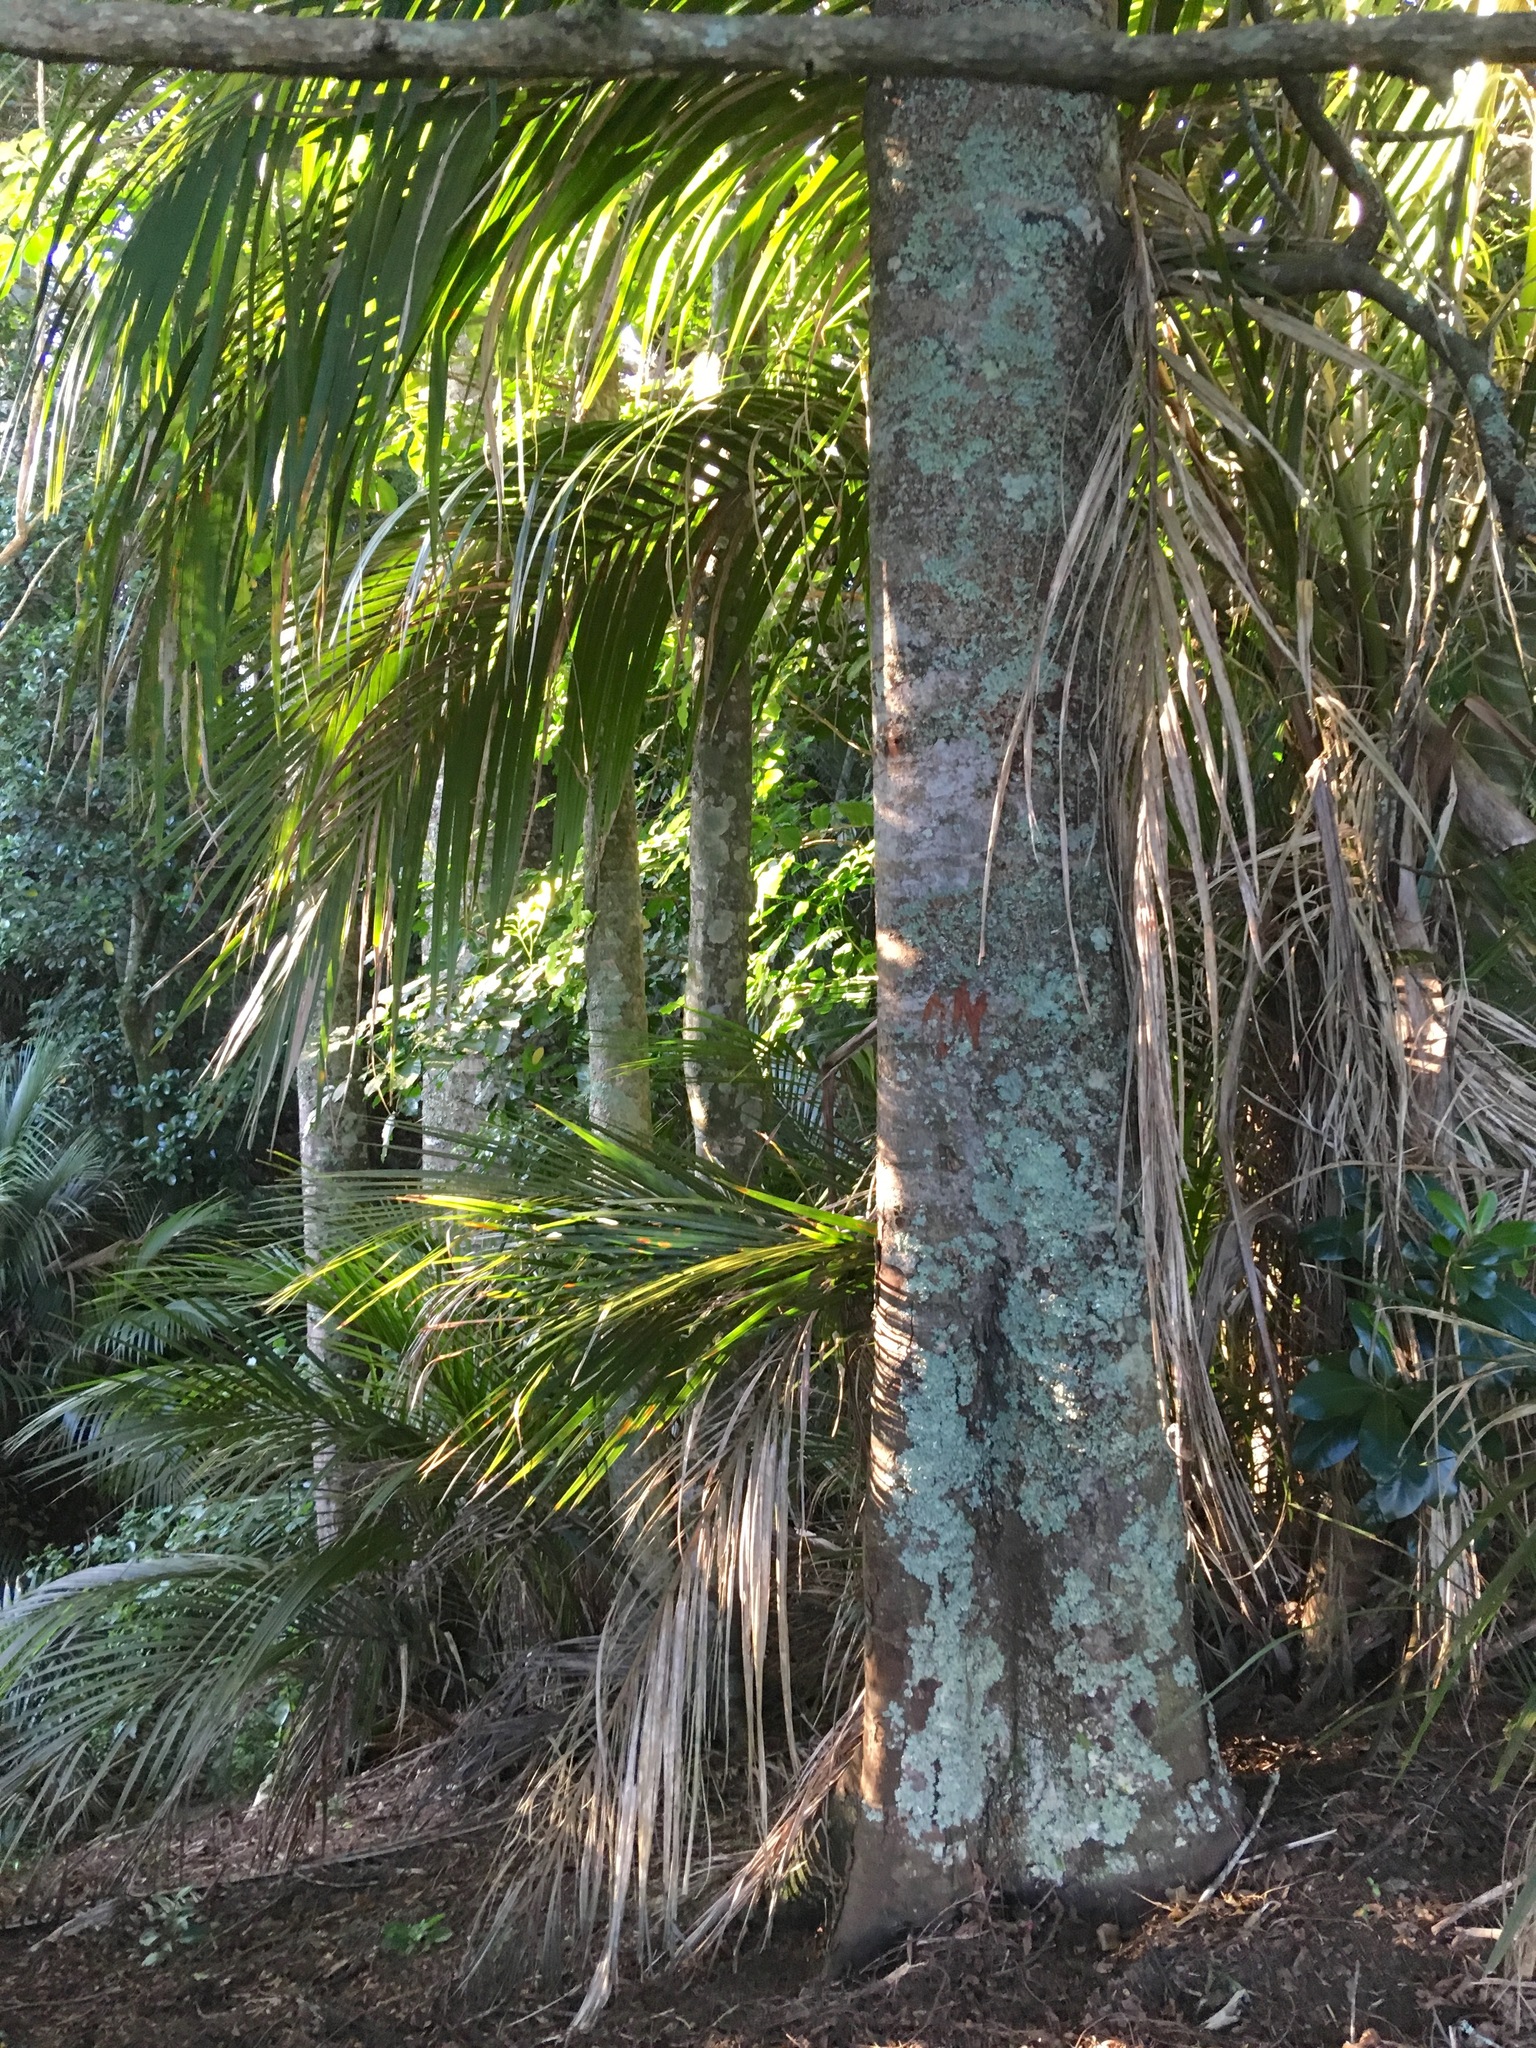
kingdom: Plantae
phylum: Tracheophyta
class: Liliopsida
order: Arecales
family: Arecaceae
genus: Rhopalostylis
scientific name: Rhopalostylis sapida
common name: Feather-duster palm
